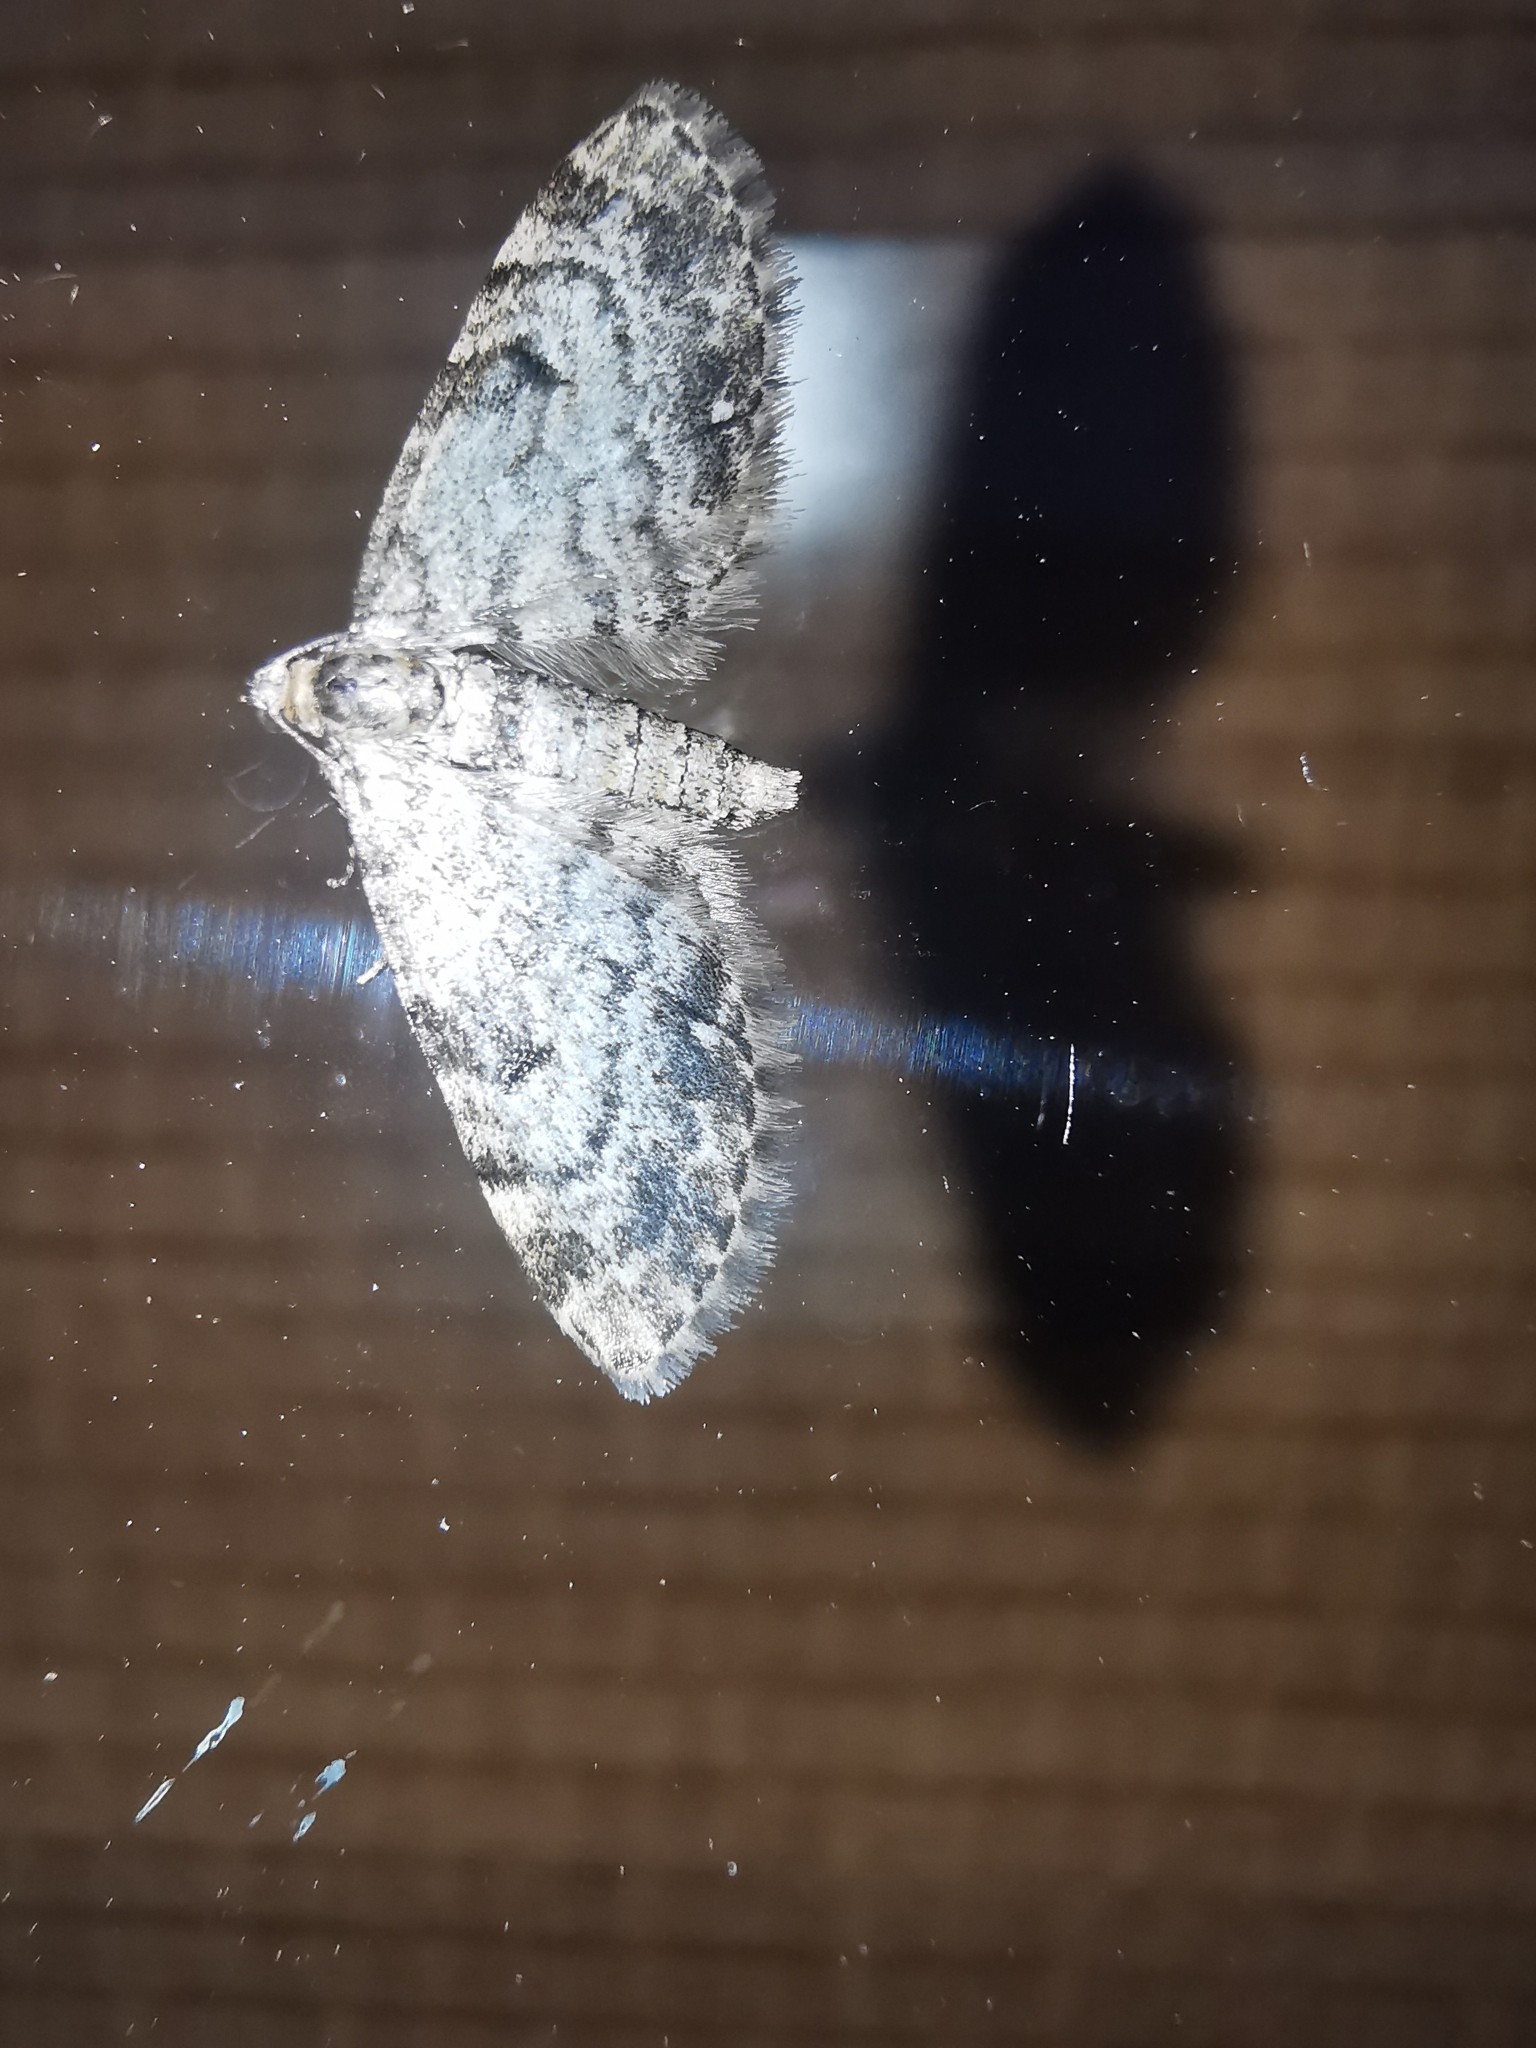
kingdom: Animalia
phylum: Arthropoda
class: Insecta
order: Lepidoptera
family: Geometridae
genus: Eupithecia
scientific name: Eupithecia tantillaria
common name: Dwarf pug
